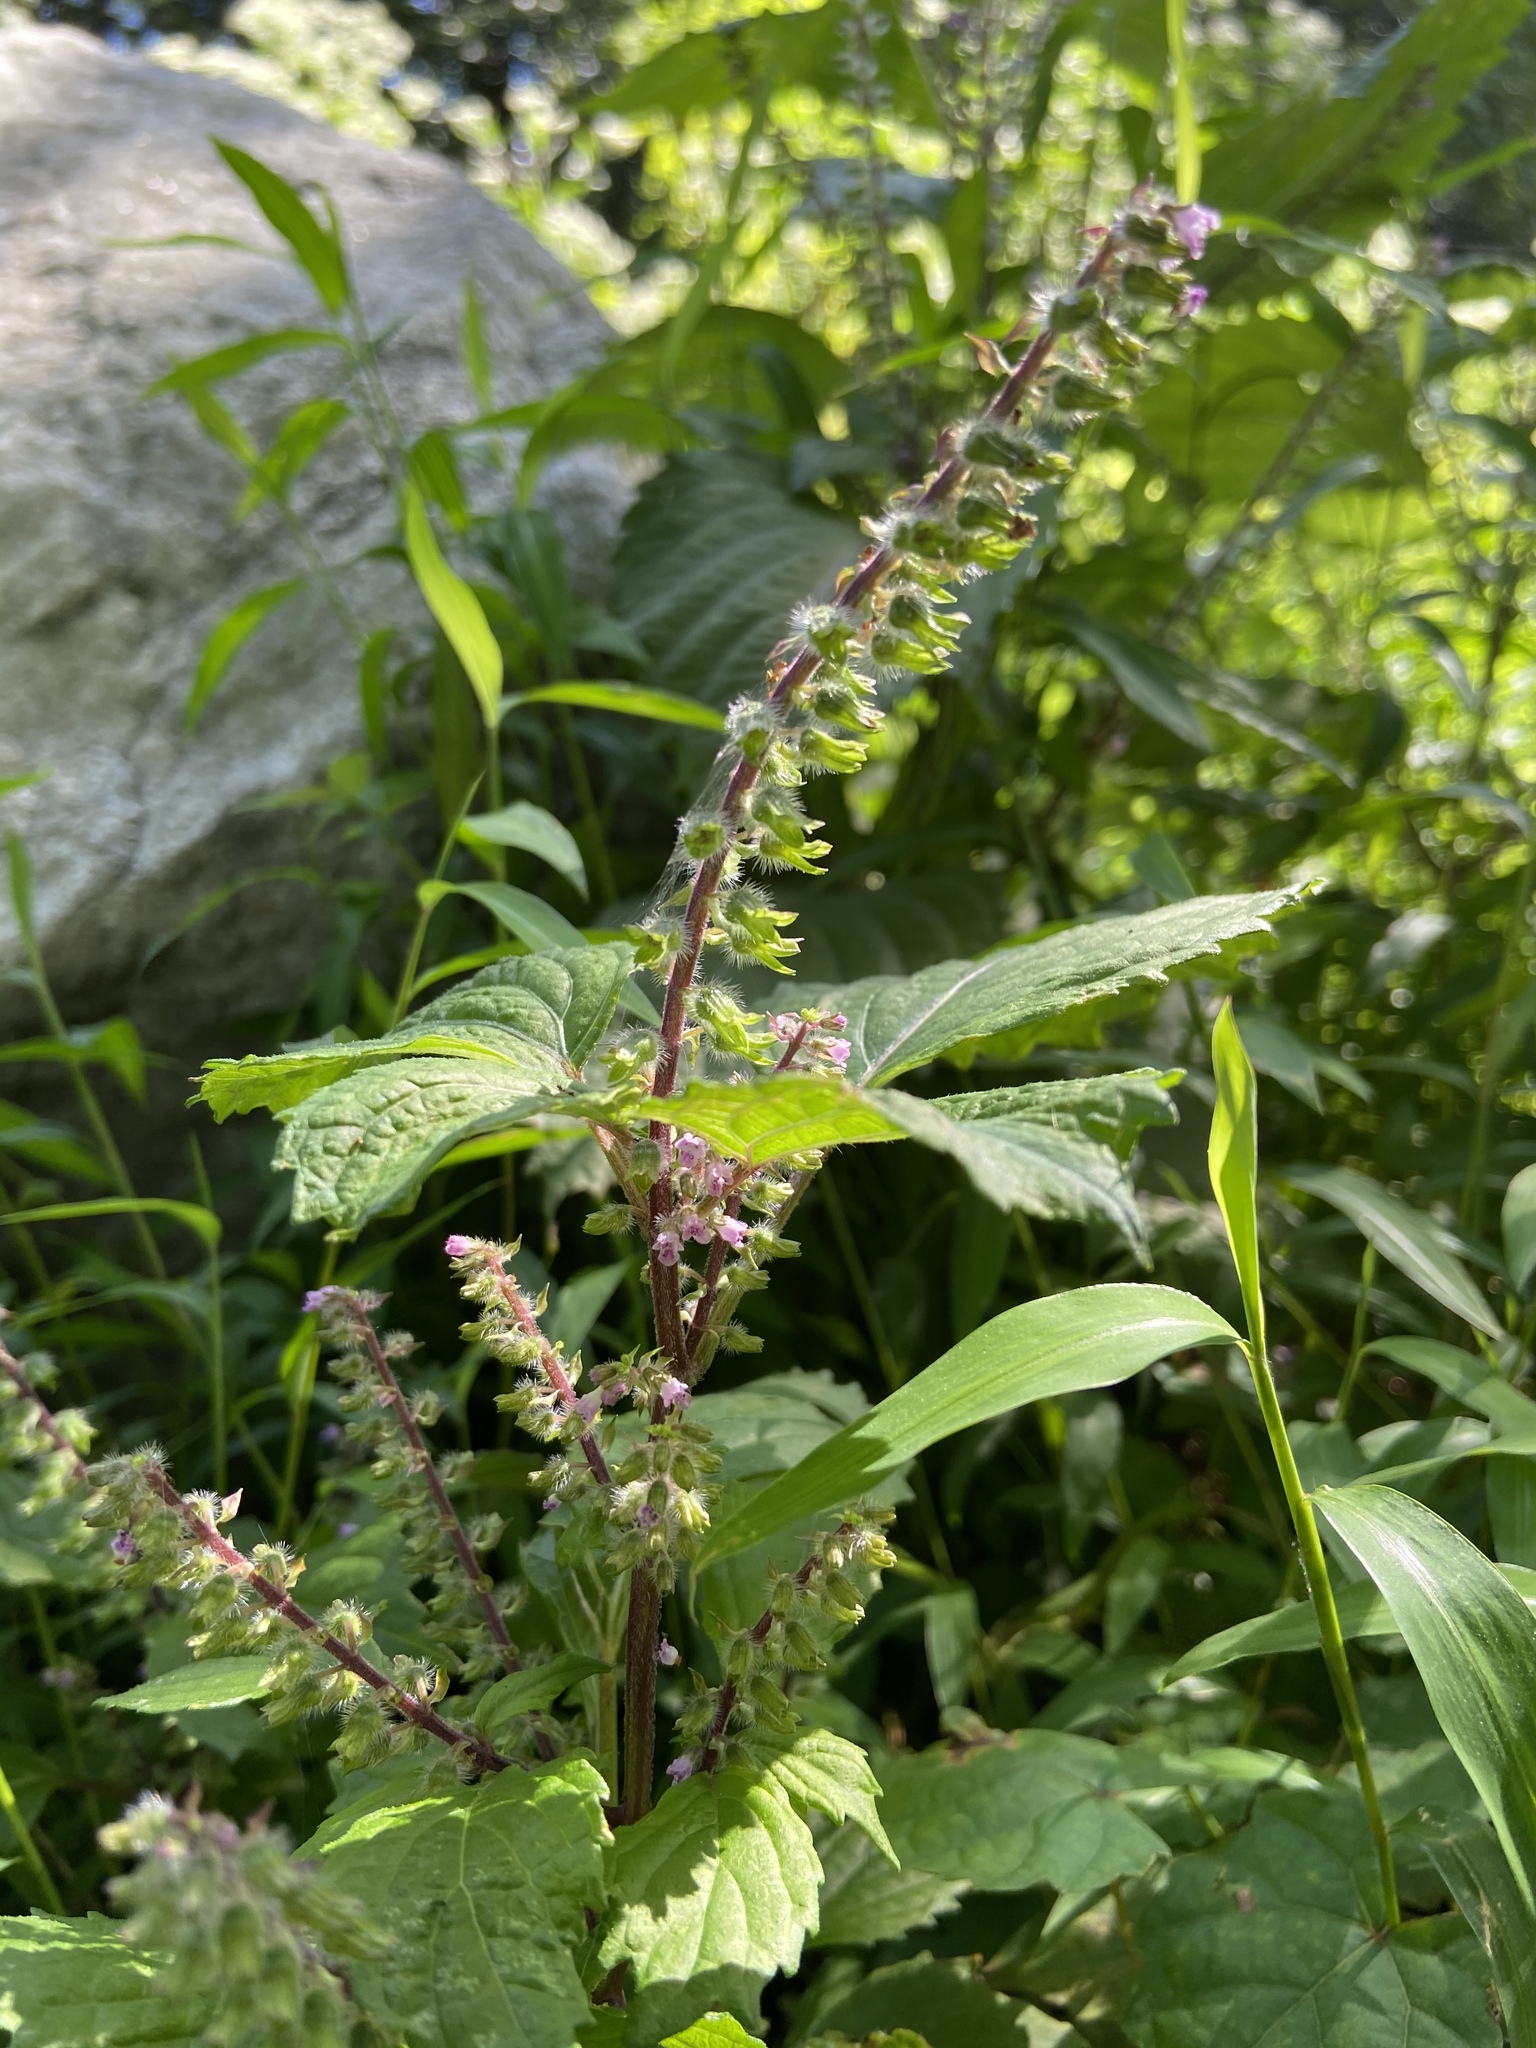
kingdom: Plantae
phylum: Tracheophyta
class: Magnoliopsida
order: Lamiales
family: Lamiaceae
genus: Perilla
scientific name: Perilla frutescens
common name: Perilla
